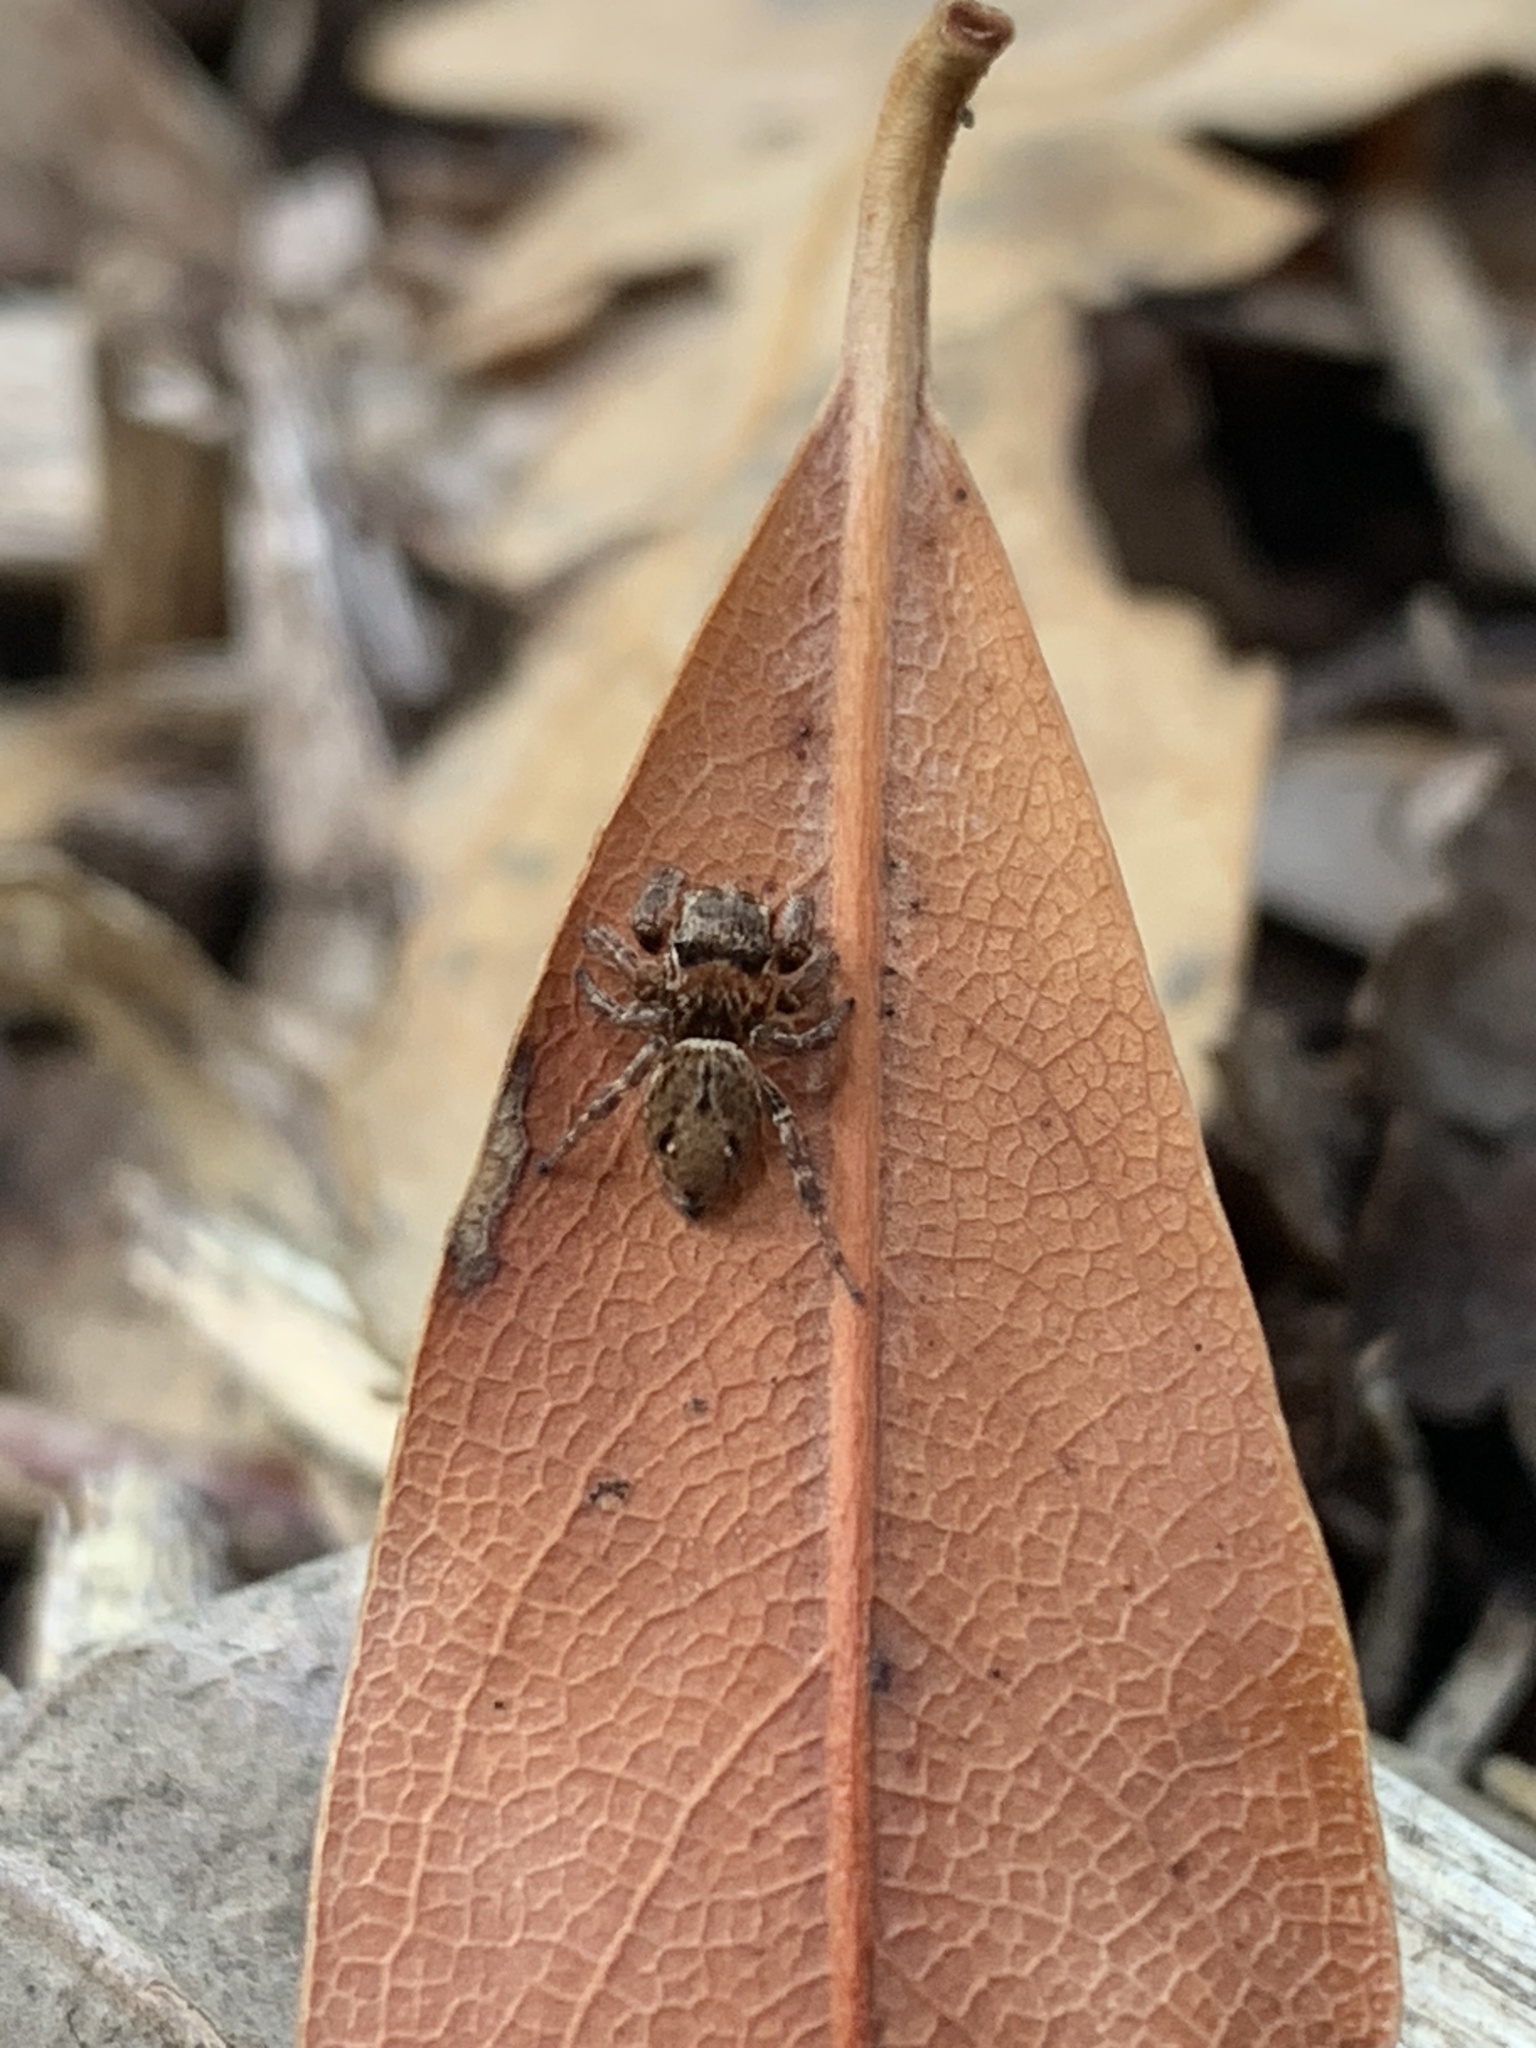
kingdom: Animalia
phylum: Arthropoda
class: Arachnida
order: Araneae
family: Salticidae
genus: Evarcha
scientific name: Evarcha proszynskii
